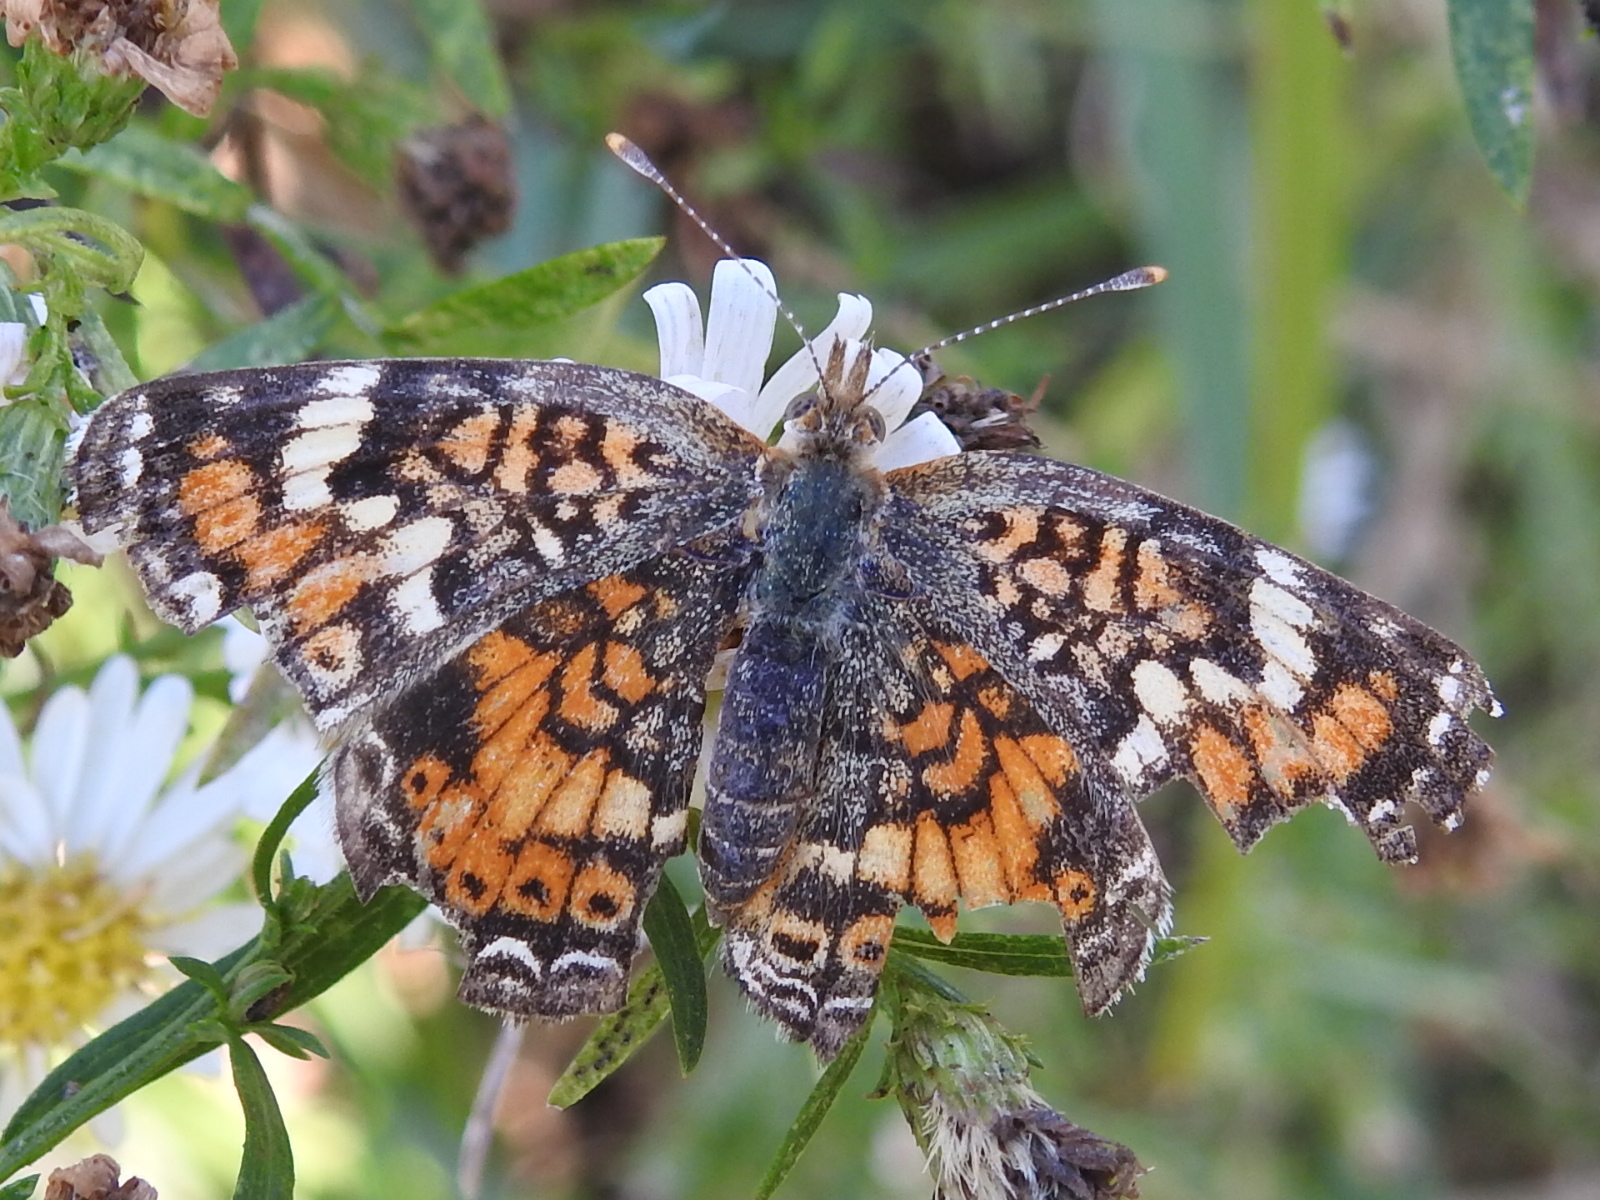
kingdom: Animalia
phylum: Arthropoda
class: Insecta
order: Lepidoptera
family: Nymphalidae
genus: Phyciodes
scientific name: Phyciodes phaon
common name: Phaon crescent
